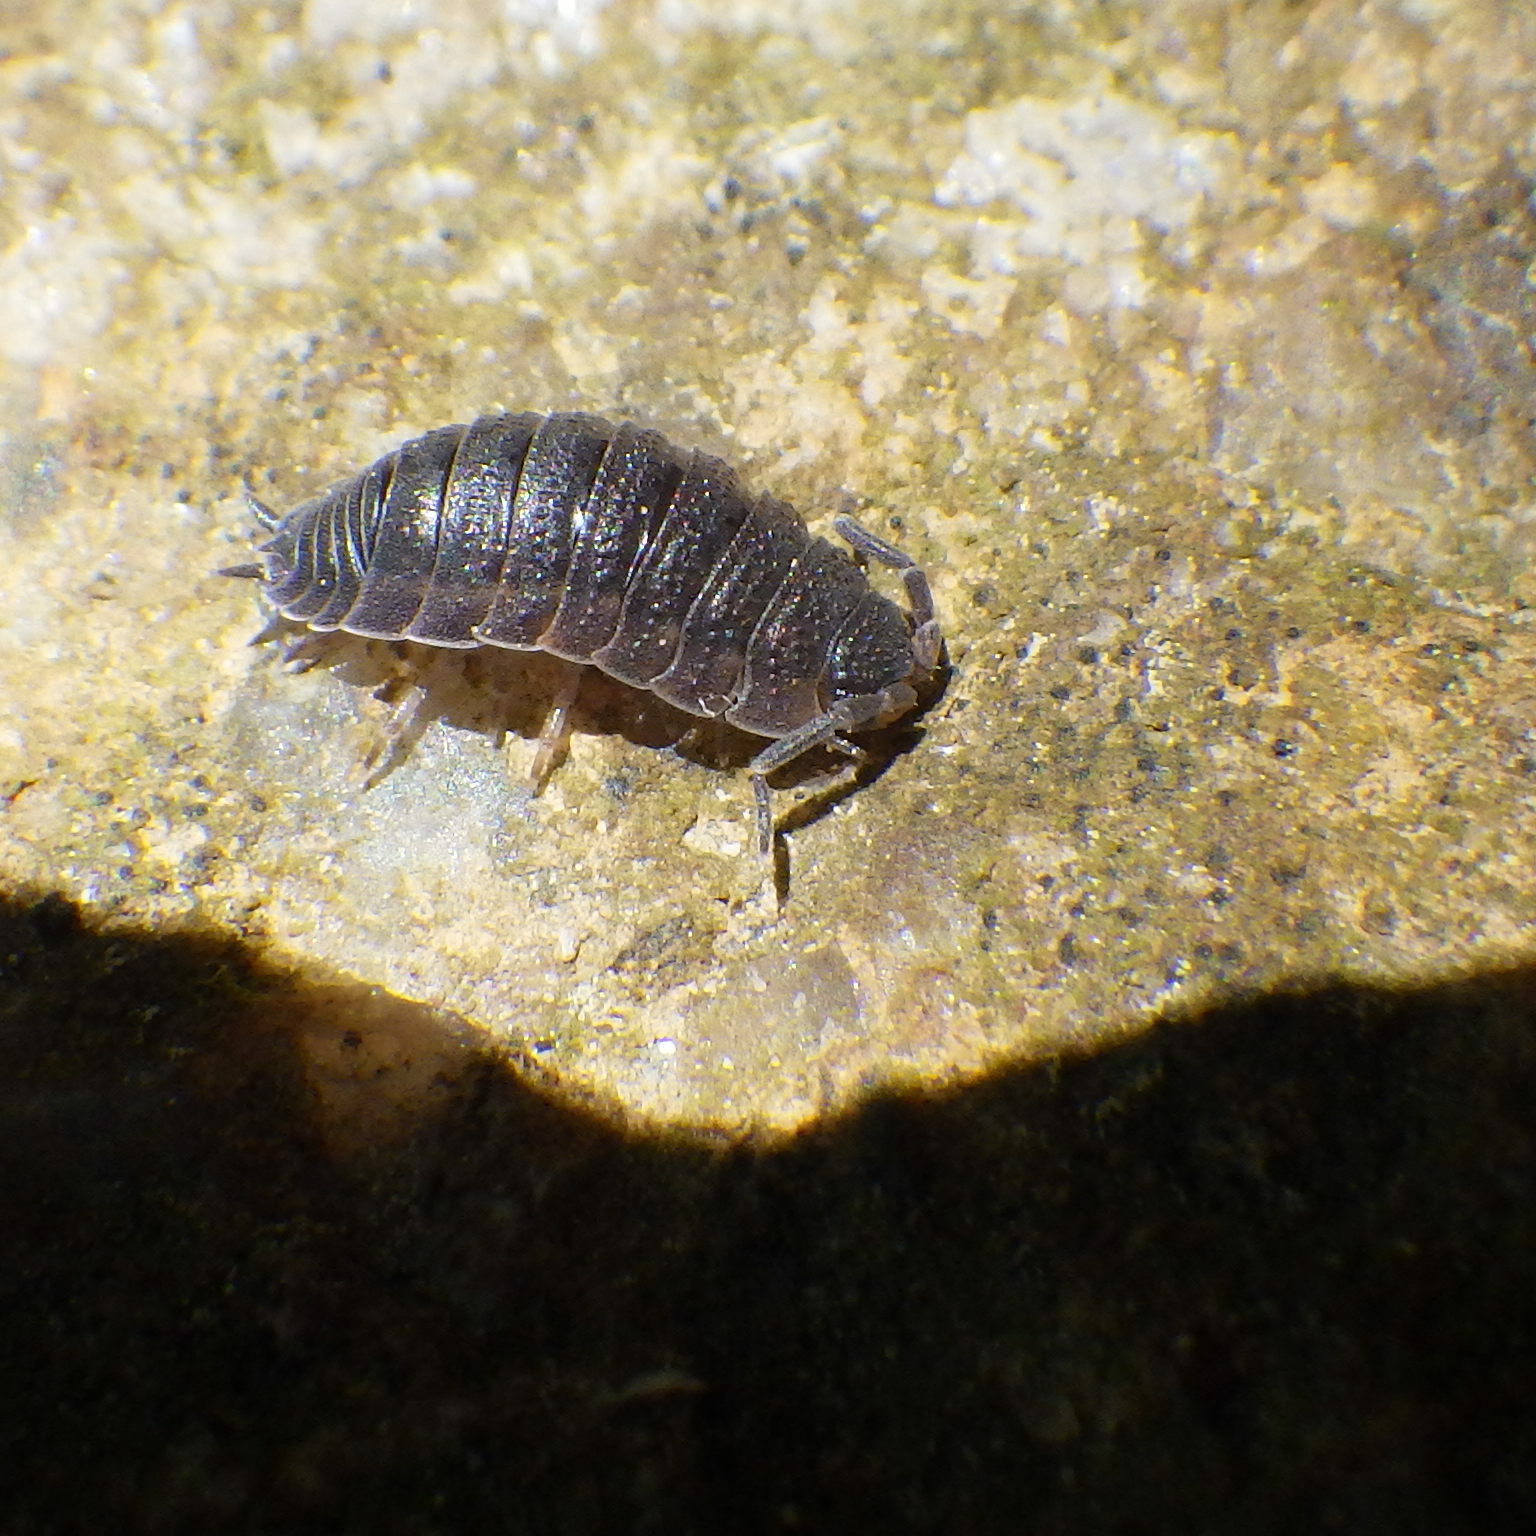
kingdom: Animalia
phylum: Arthropoda
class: Malacostraca
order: Isopoda
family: Porcellionidae
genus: Porcellio
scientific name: Porcellio scaber
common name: Common rough woodlouse
